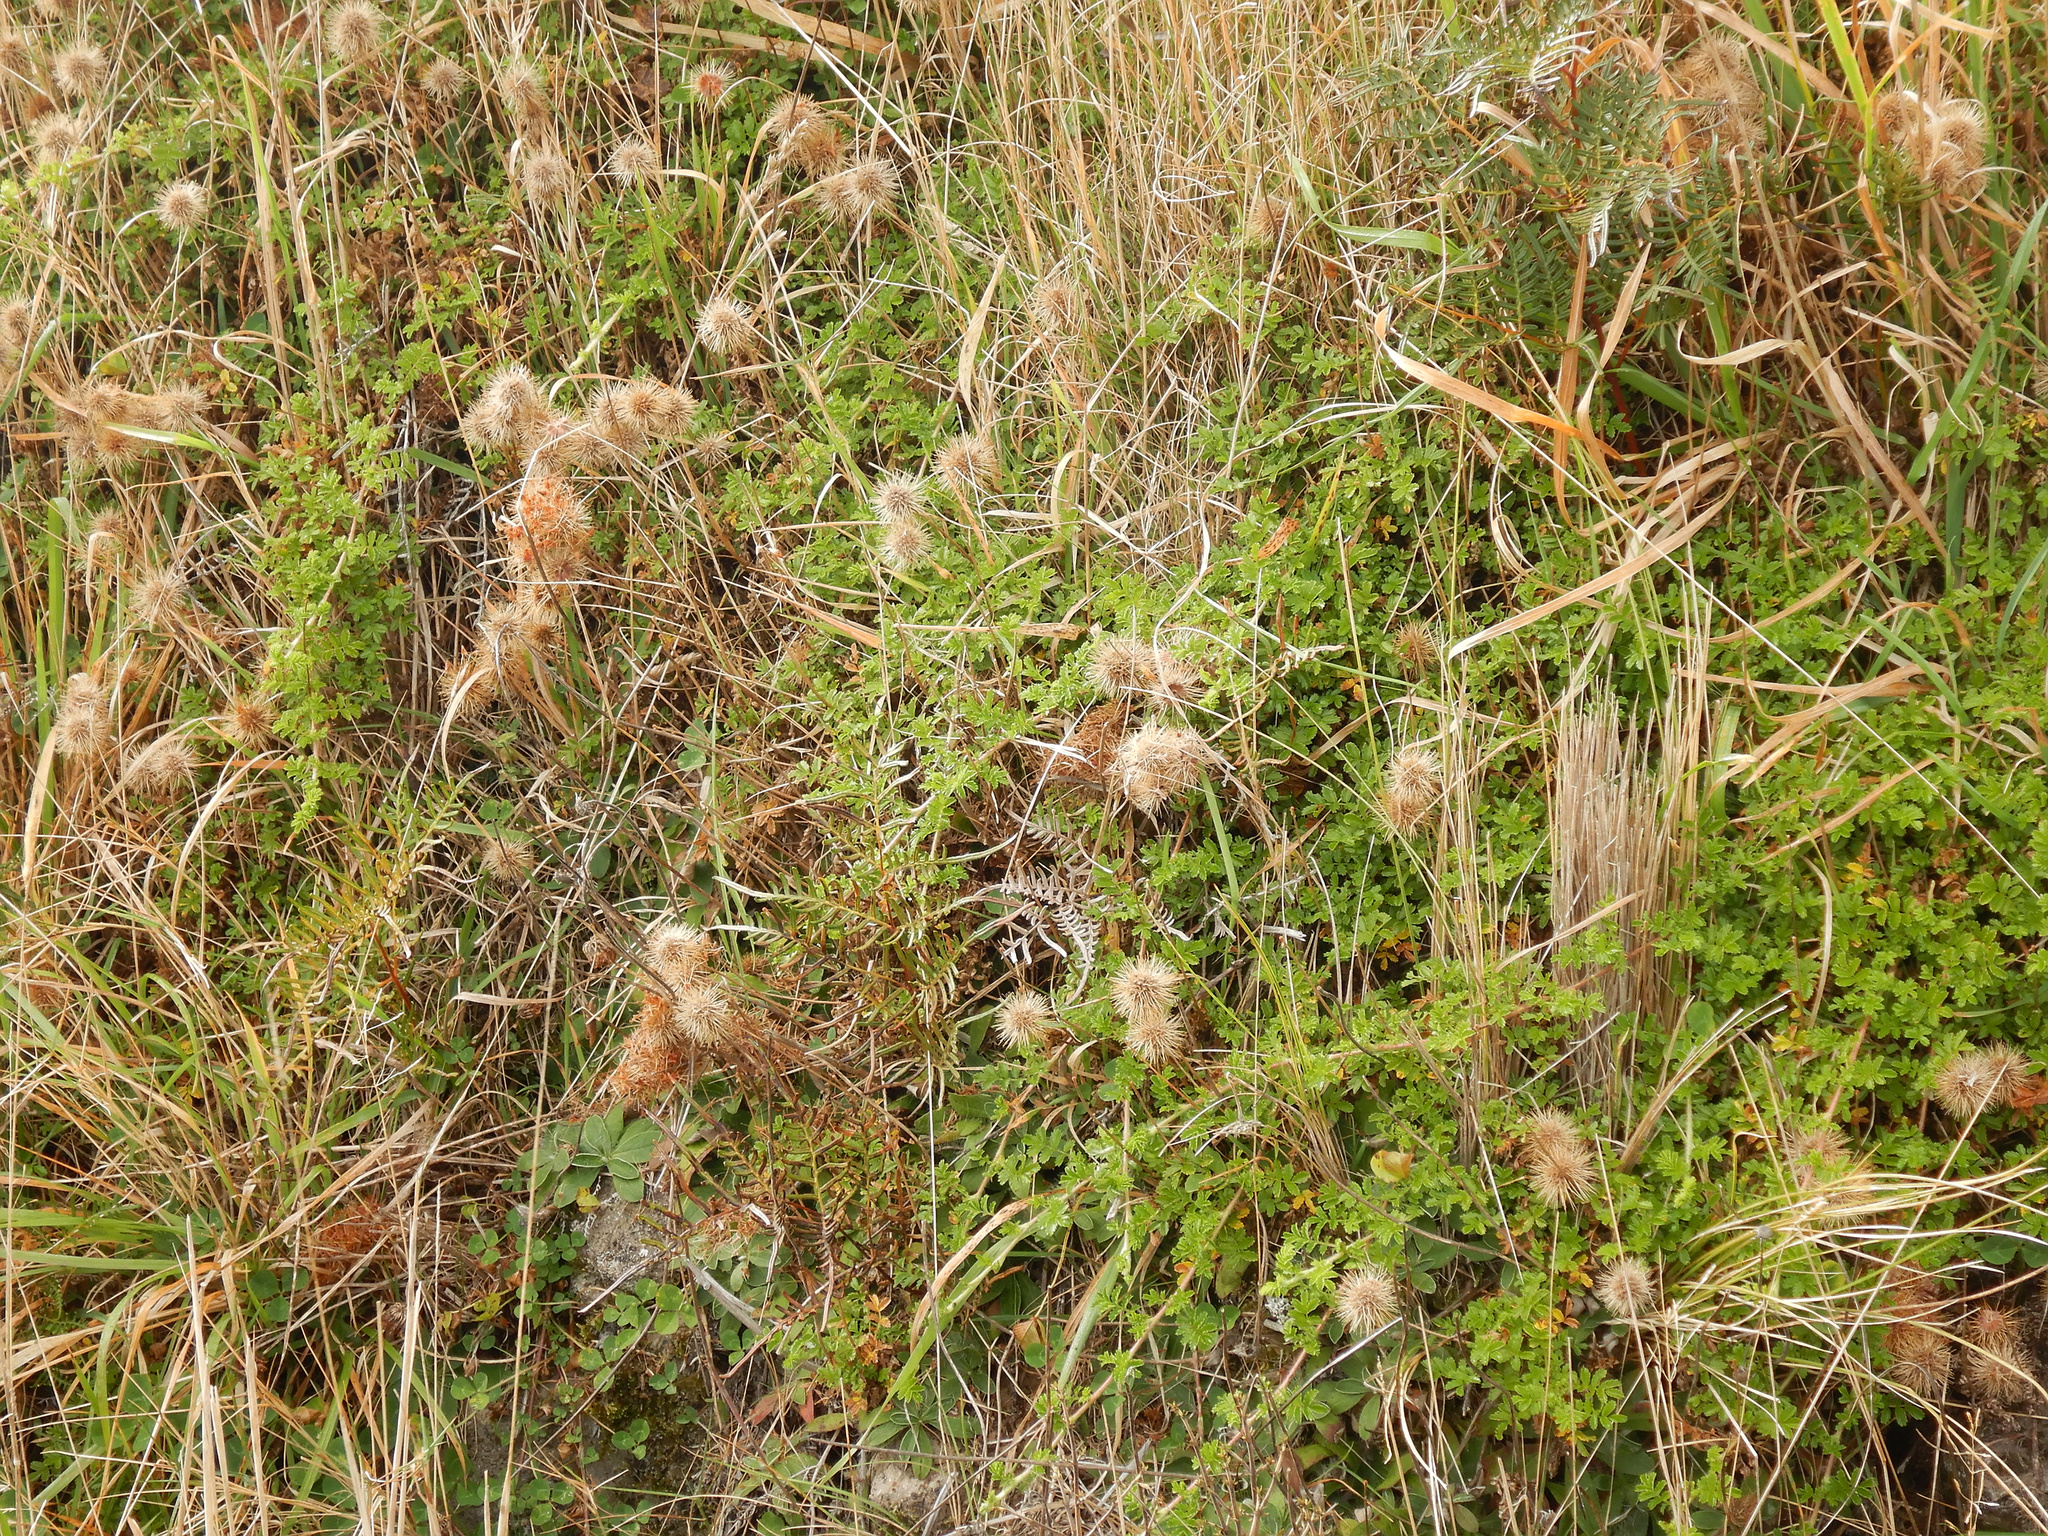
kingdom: Plantae
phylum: Tracheophyta
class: Magnoliopsida
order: Rosales
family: Rosaceae
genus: Acaena
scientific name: Acaena novae-zelandiae
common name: Pirri-pirri-bur
